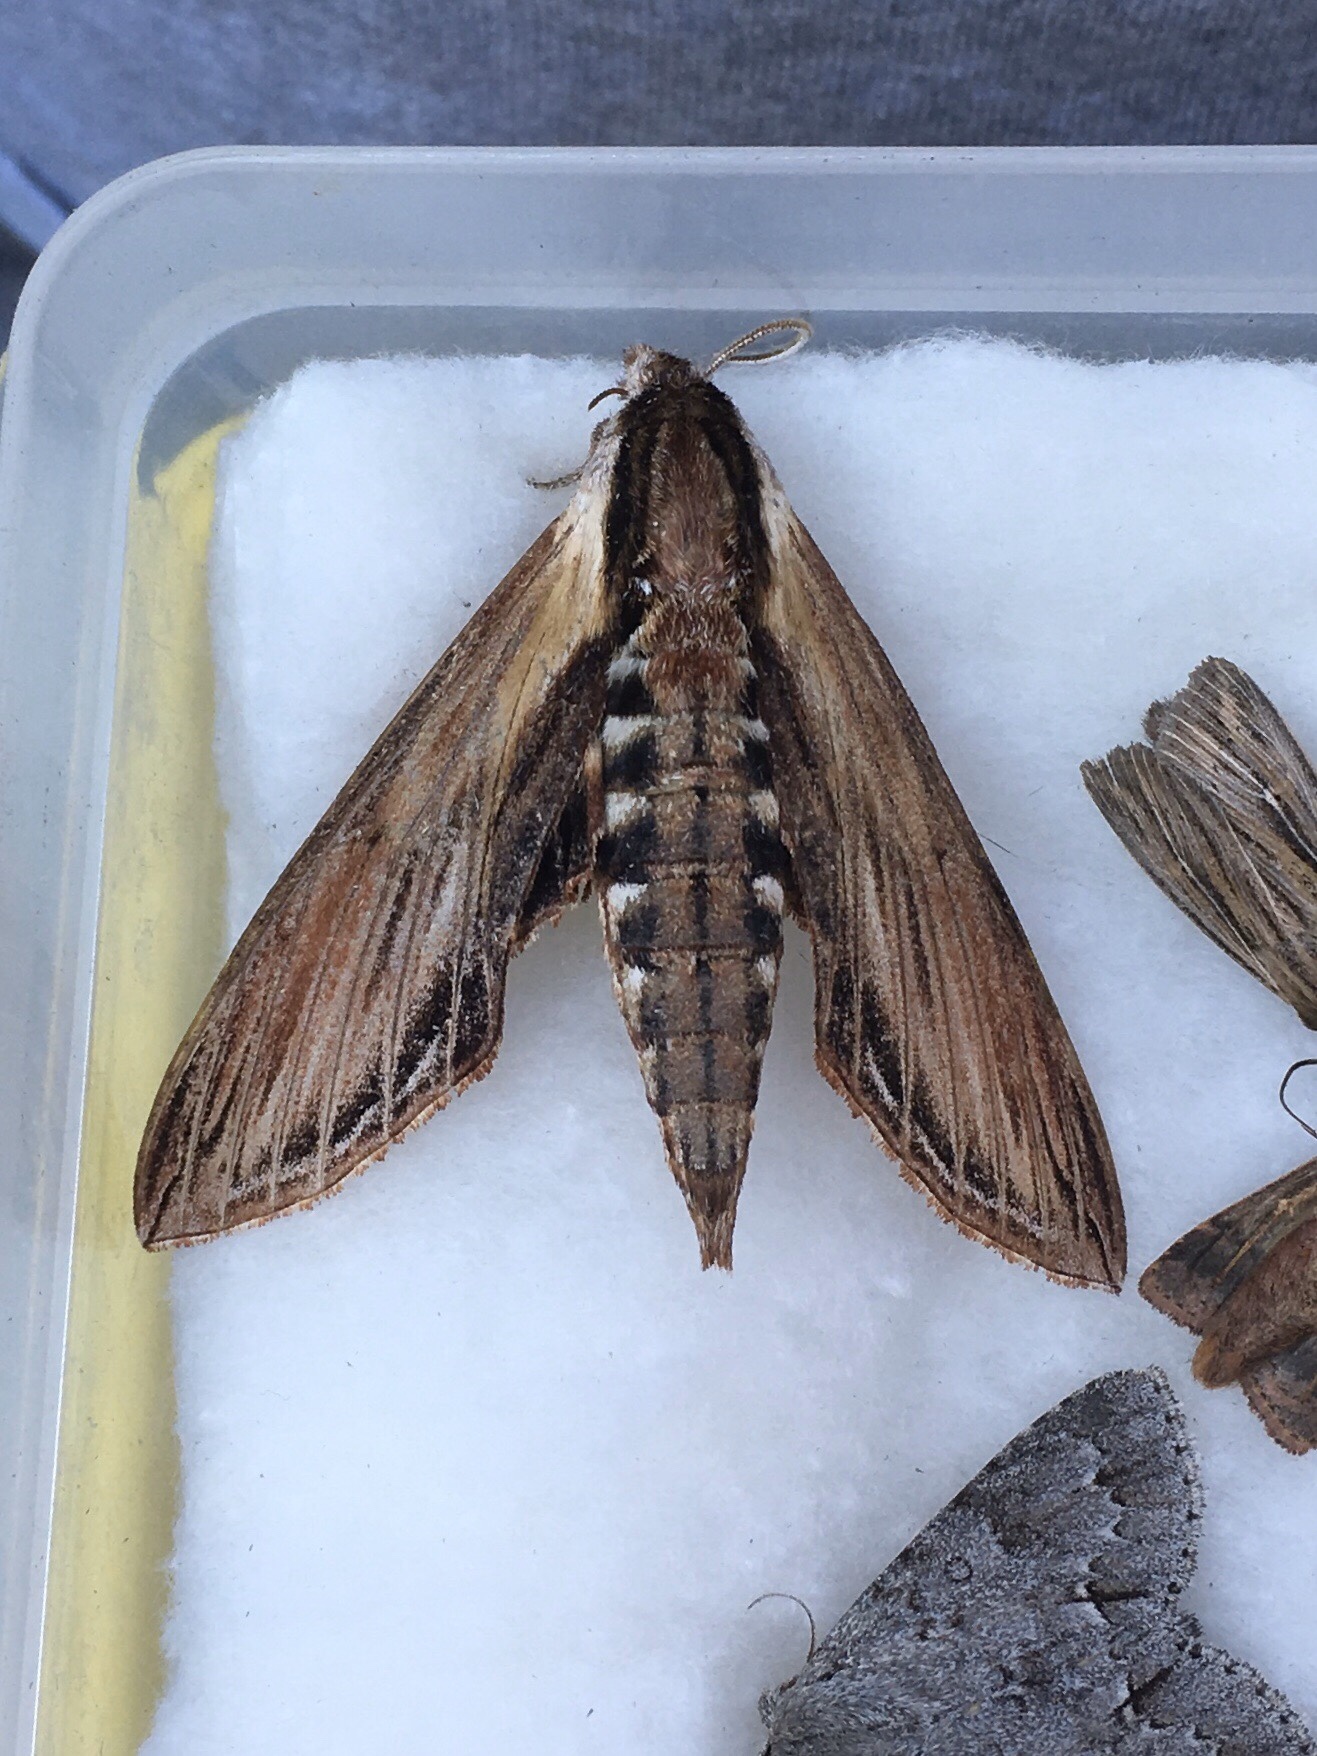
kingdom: Animalia
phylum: Arthropoda
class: Insecta
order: Lepidoptera
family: Sphingidae
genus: Sphinx
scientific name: Sphinx kalmiae
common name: Laurel sphinx
